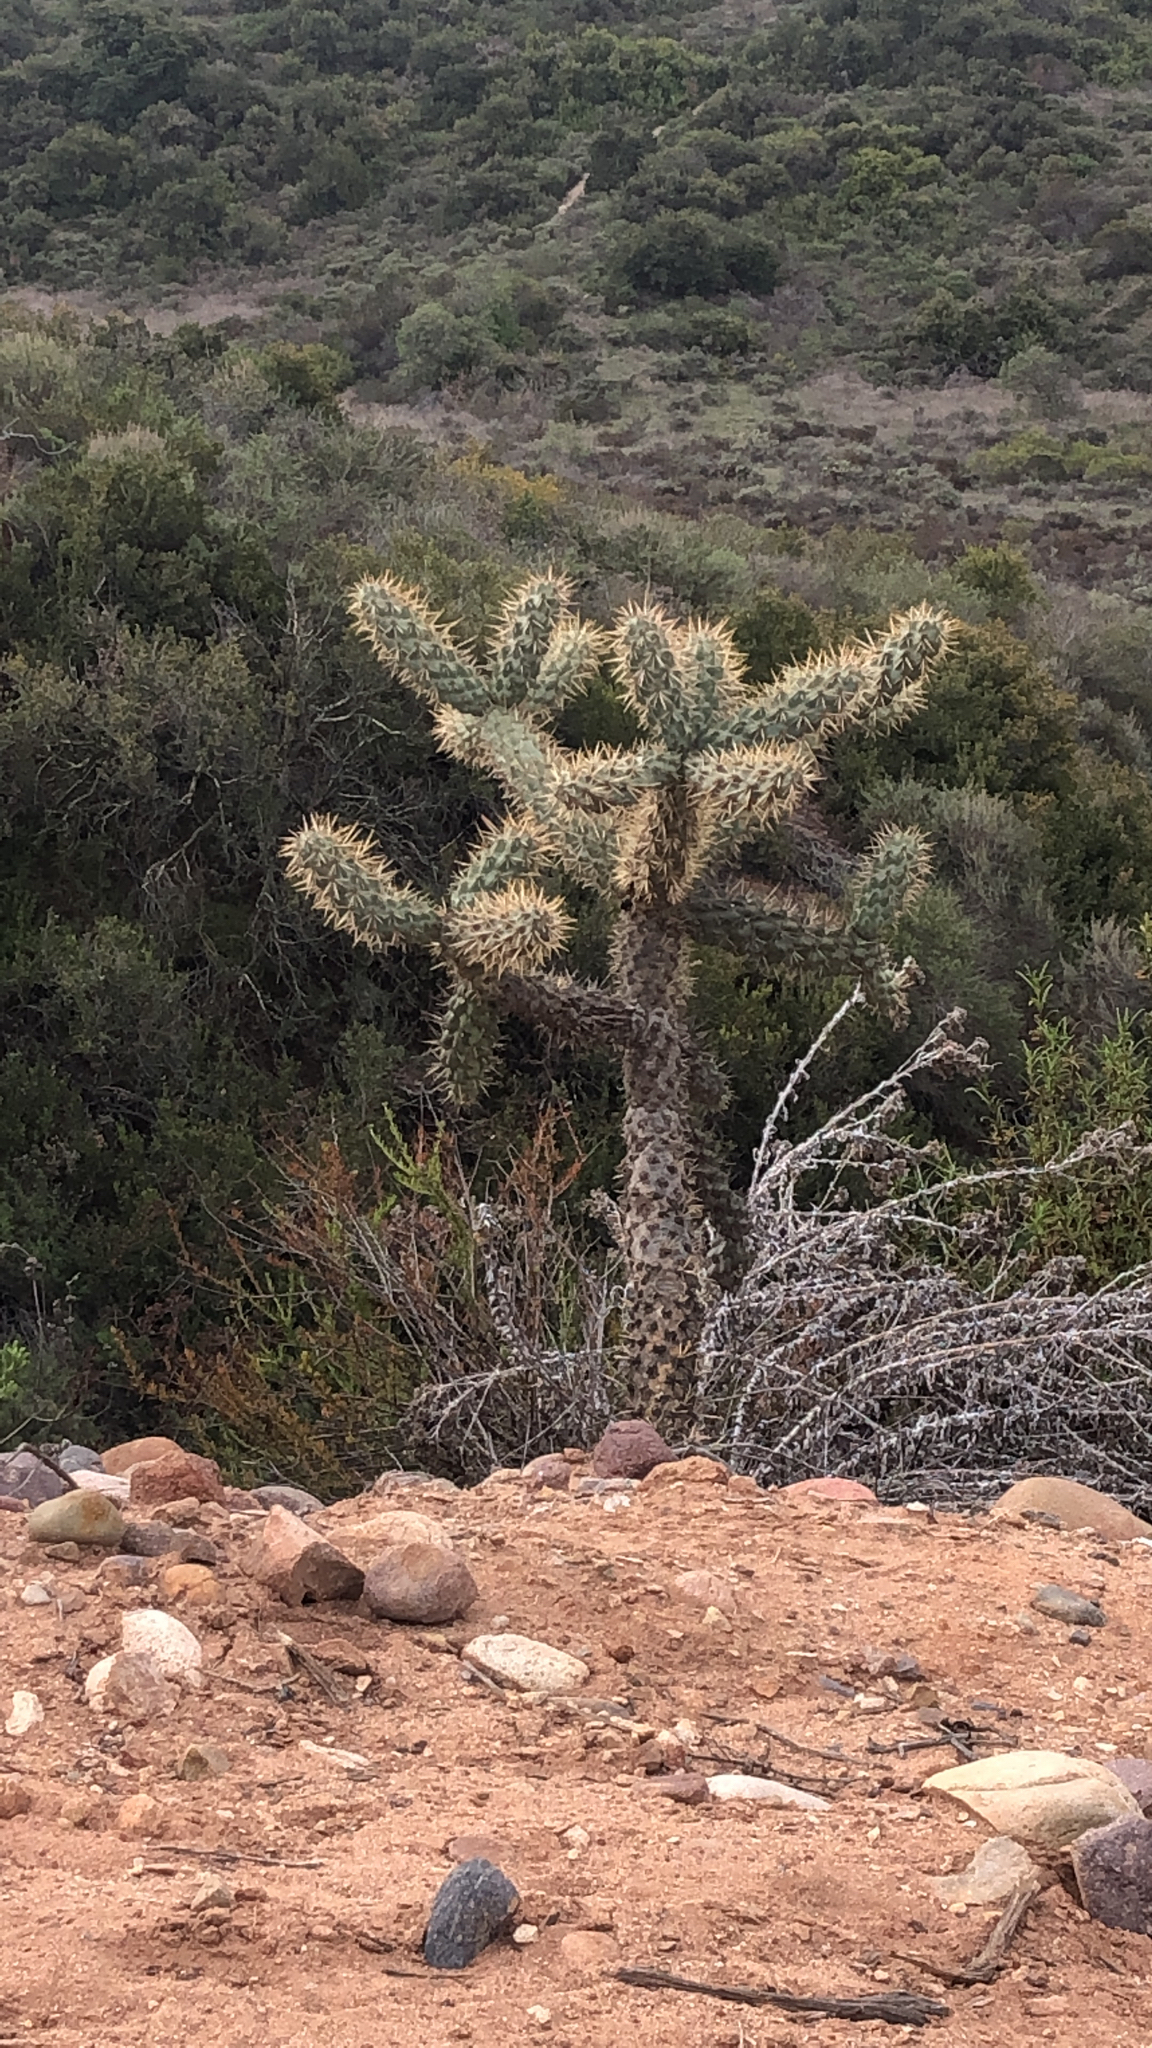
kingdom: Plantae
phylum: Tracheophyta
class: Magnoliopsida
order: Caryophyllales
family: Cactaceae
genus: Cylindropuntia
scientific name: Cylindropuntia prolifera
